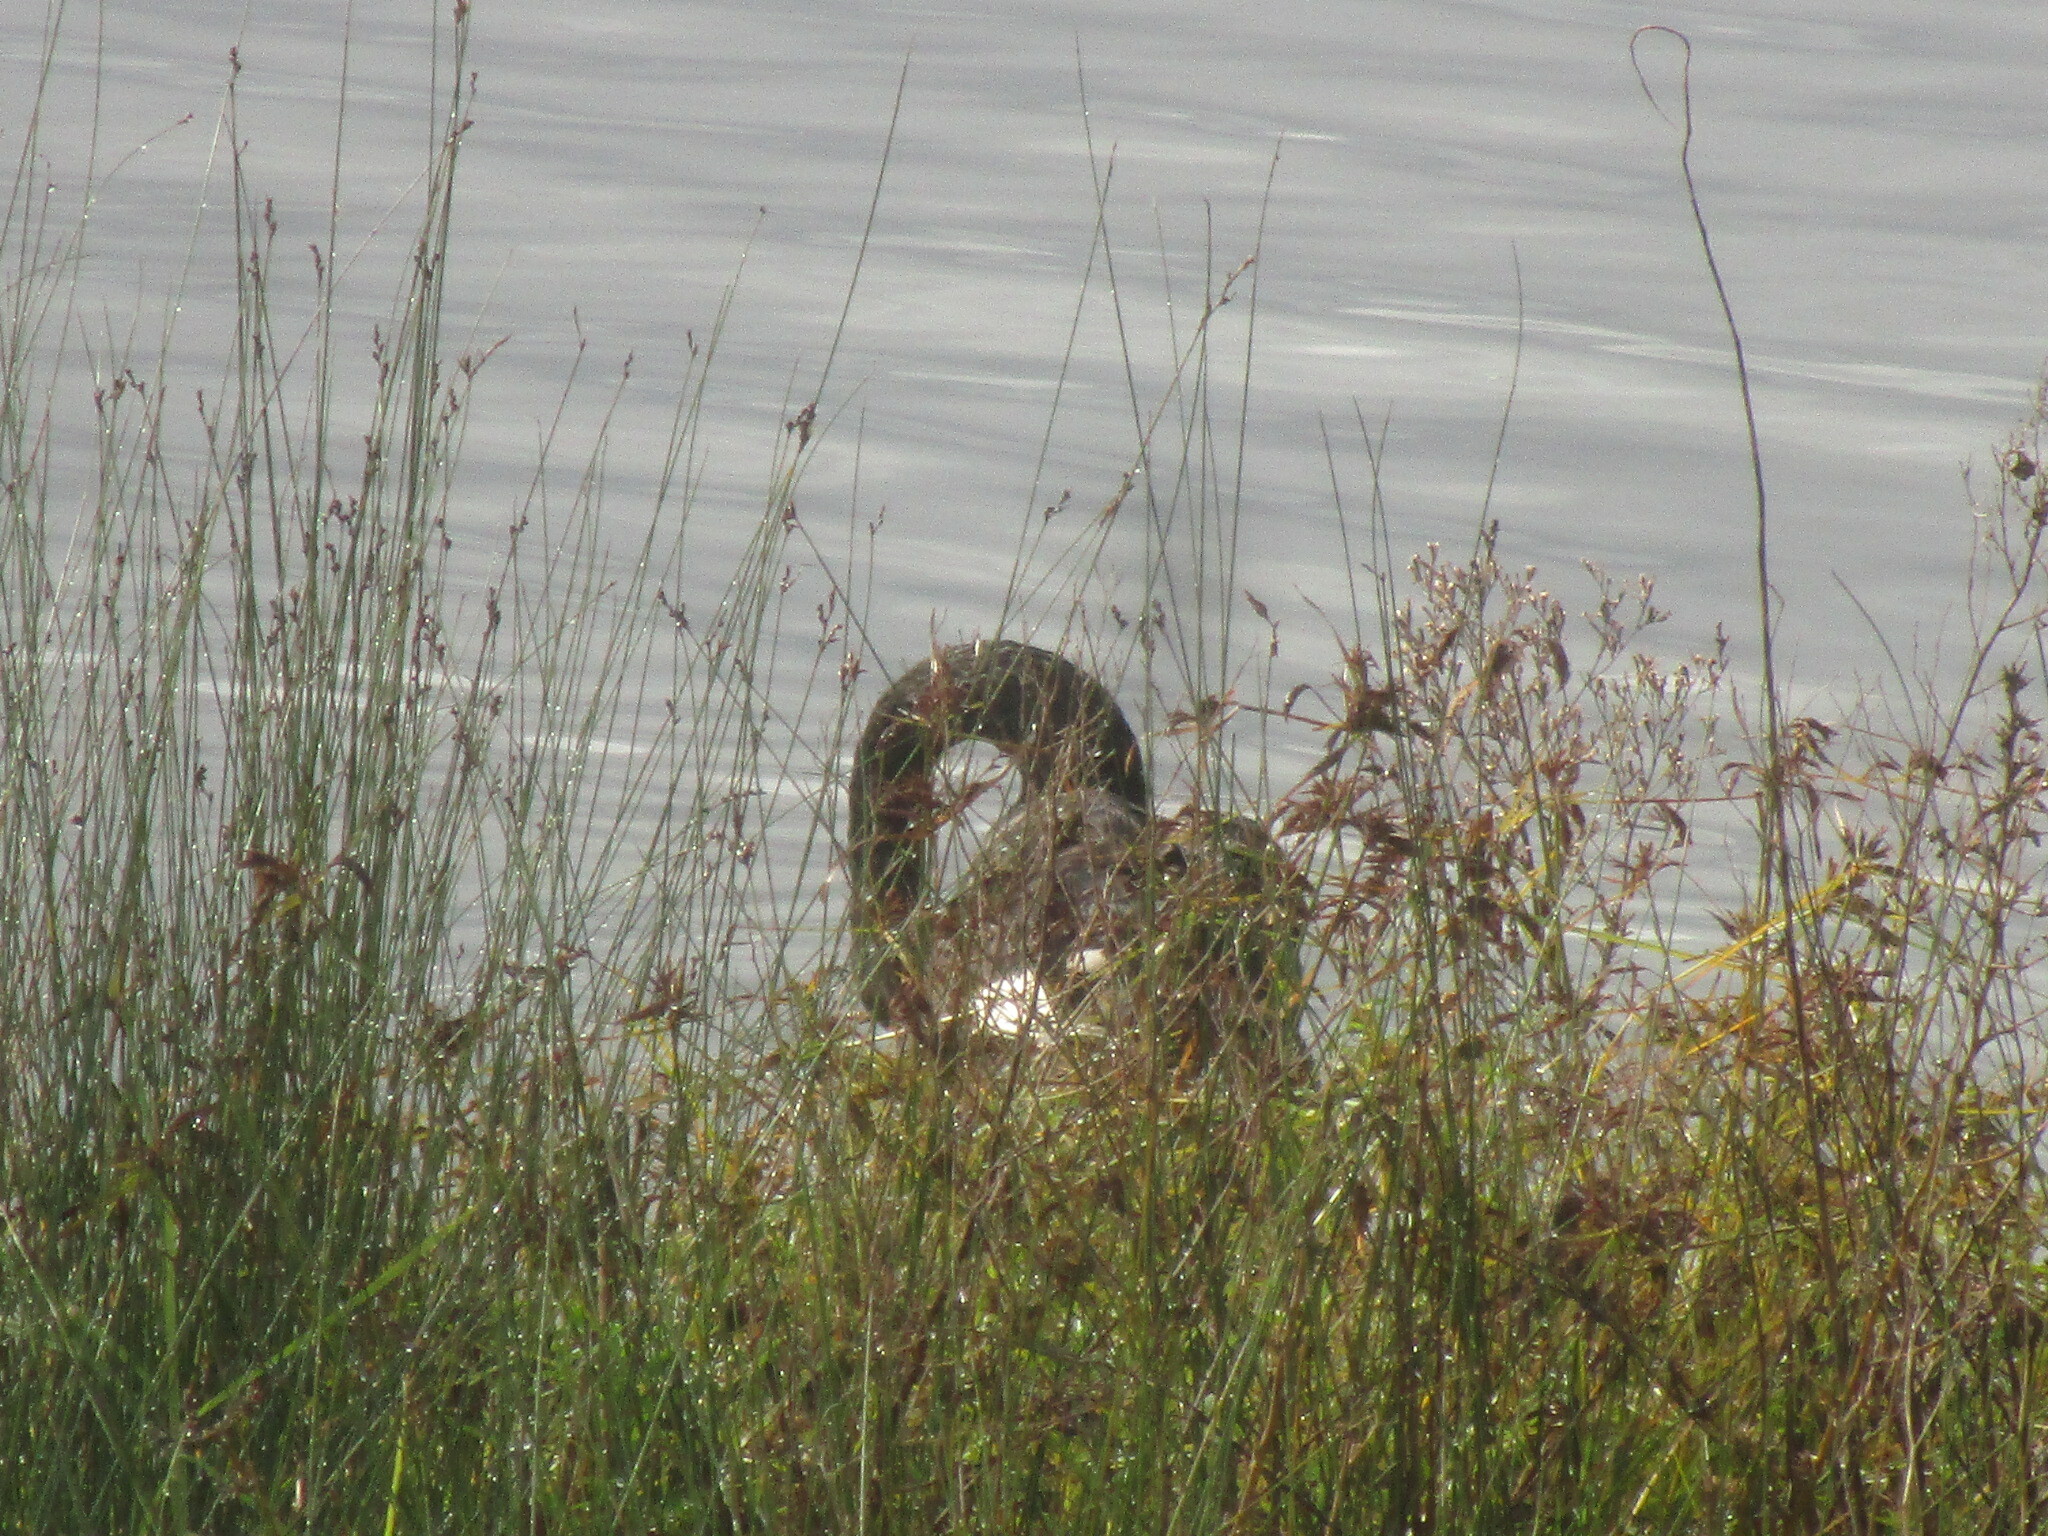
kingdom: Animalia
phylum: Chordata
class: Aves
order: Anseriformes
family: Anatidae
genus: Cygnus
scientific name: Cygnus atratus
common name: Black swan
